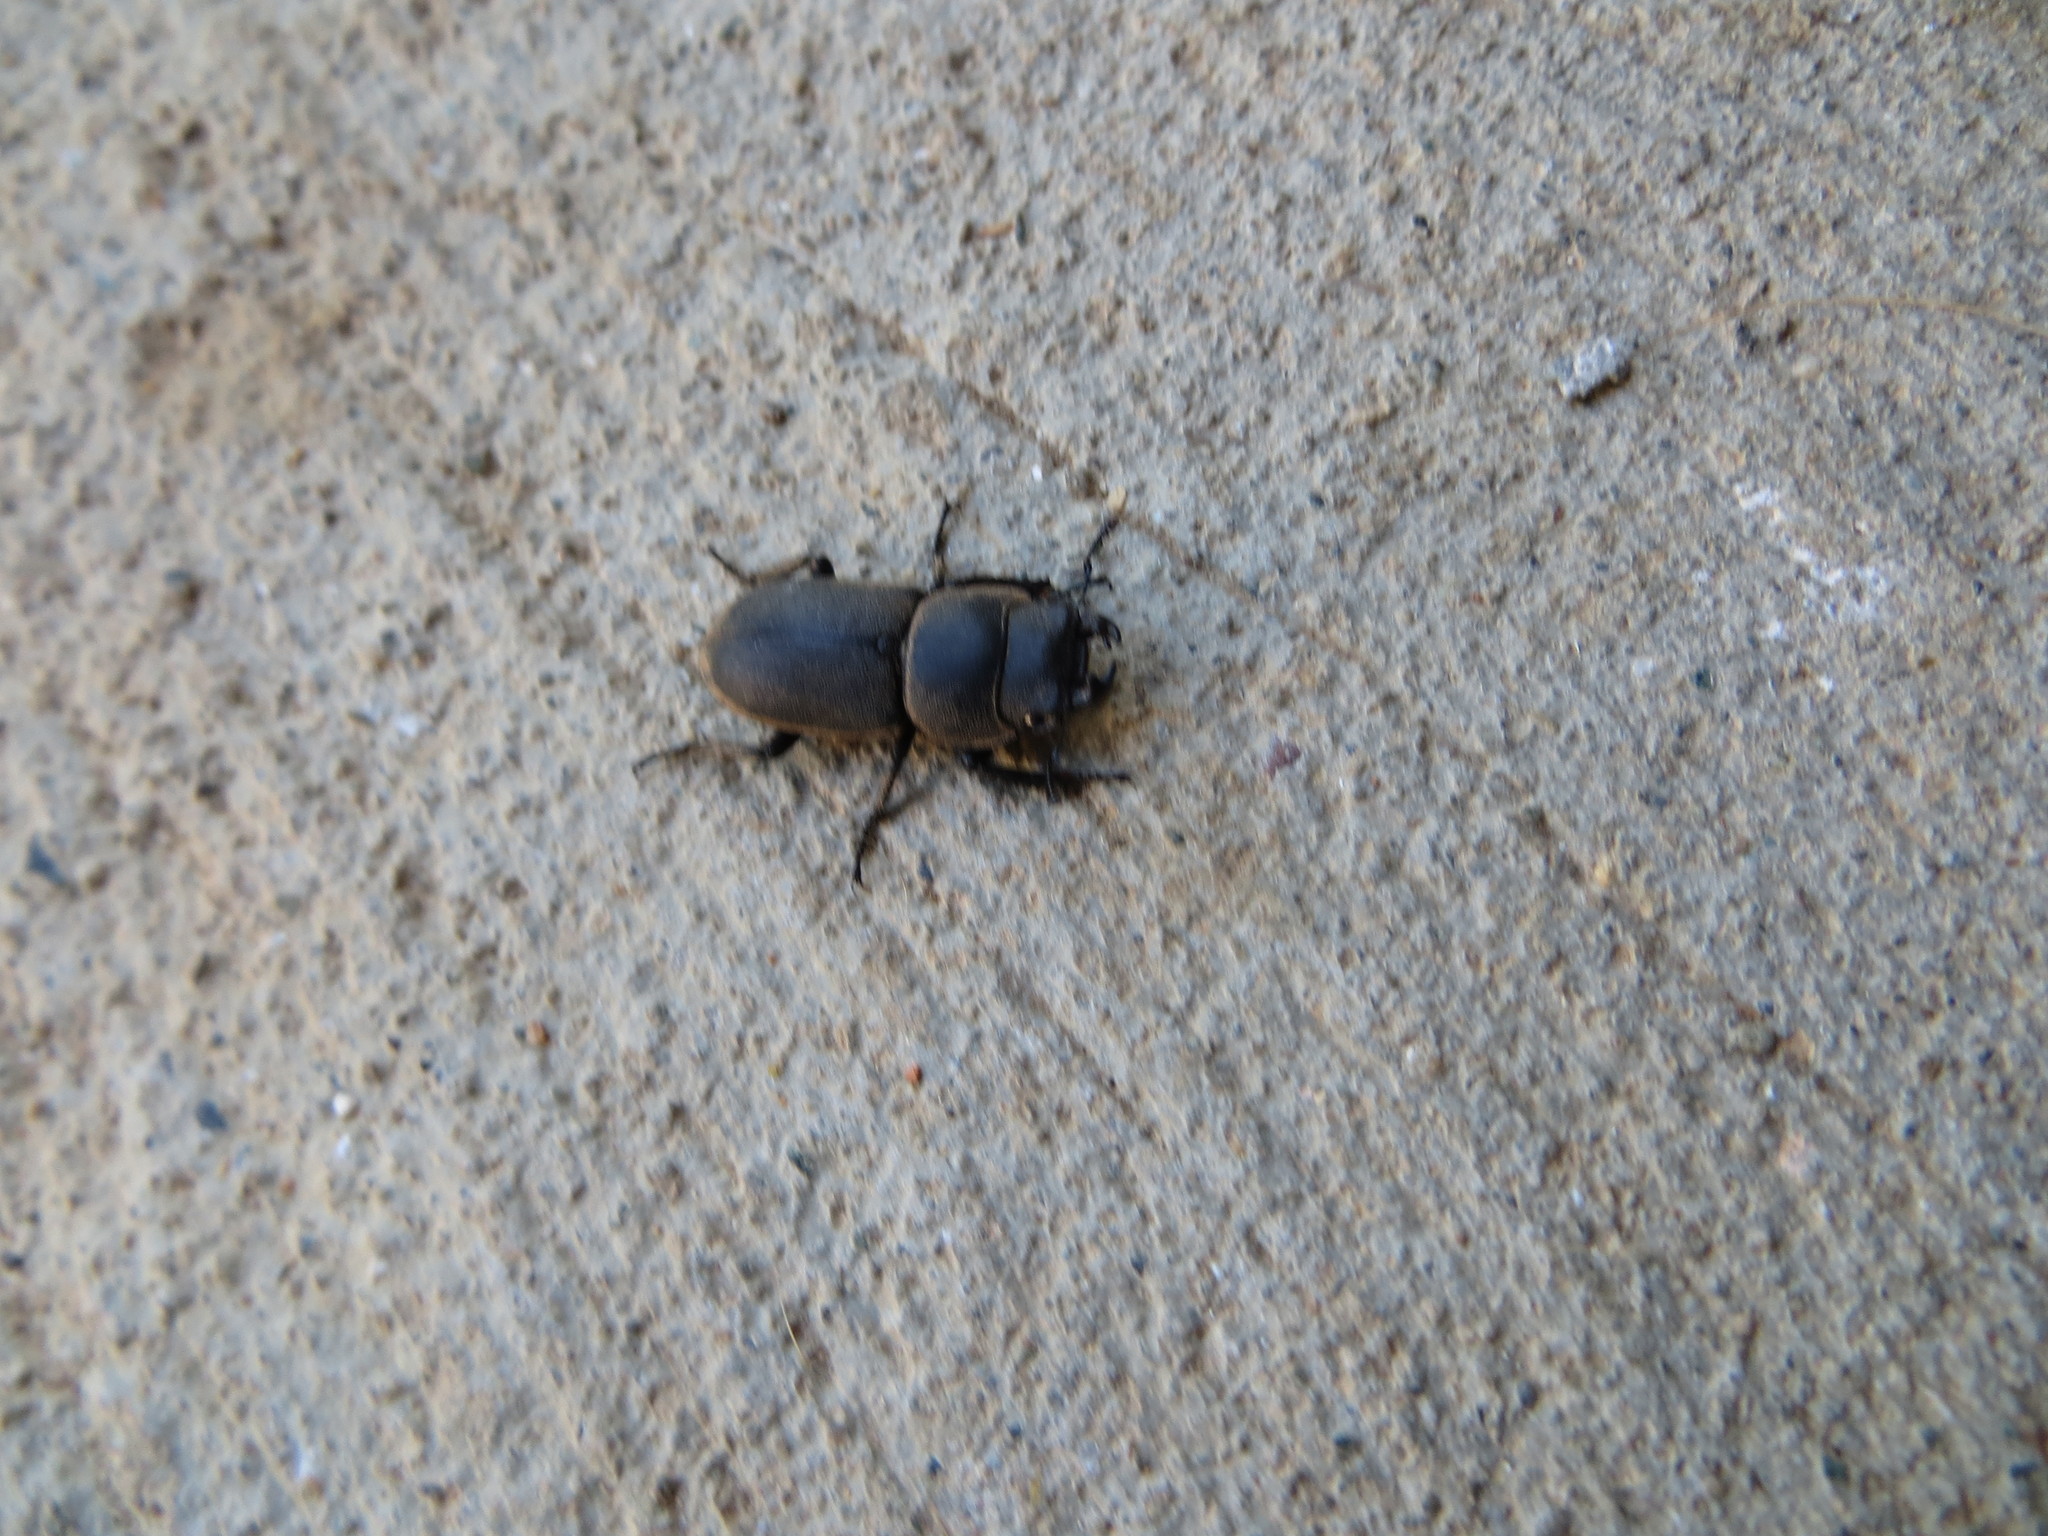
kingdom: Animalia
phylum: Arthropoda
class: Insecta
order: Coleoptera
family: Lucanidae
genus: Dorcus
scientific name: Dorcus parallelipipedus
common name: Lesser stag beetle
